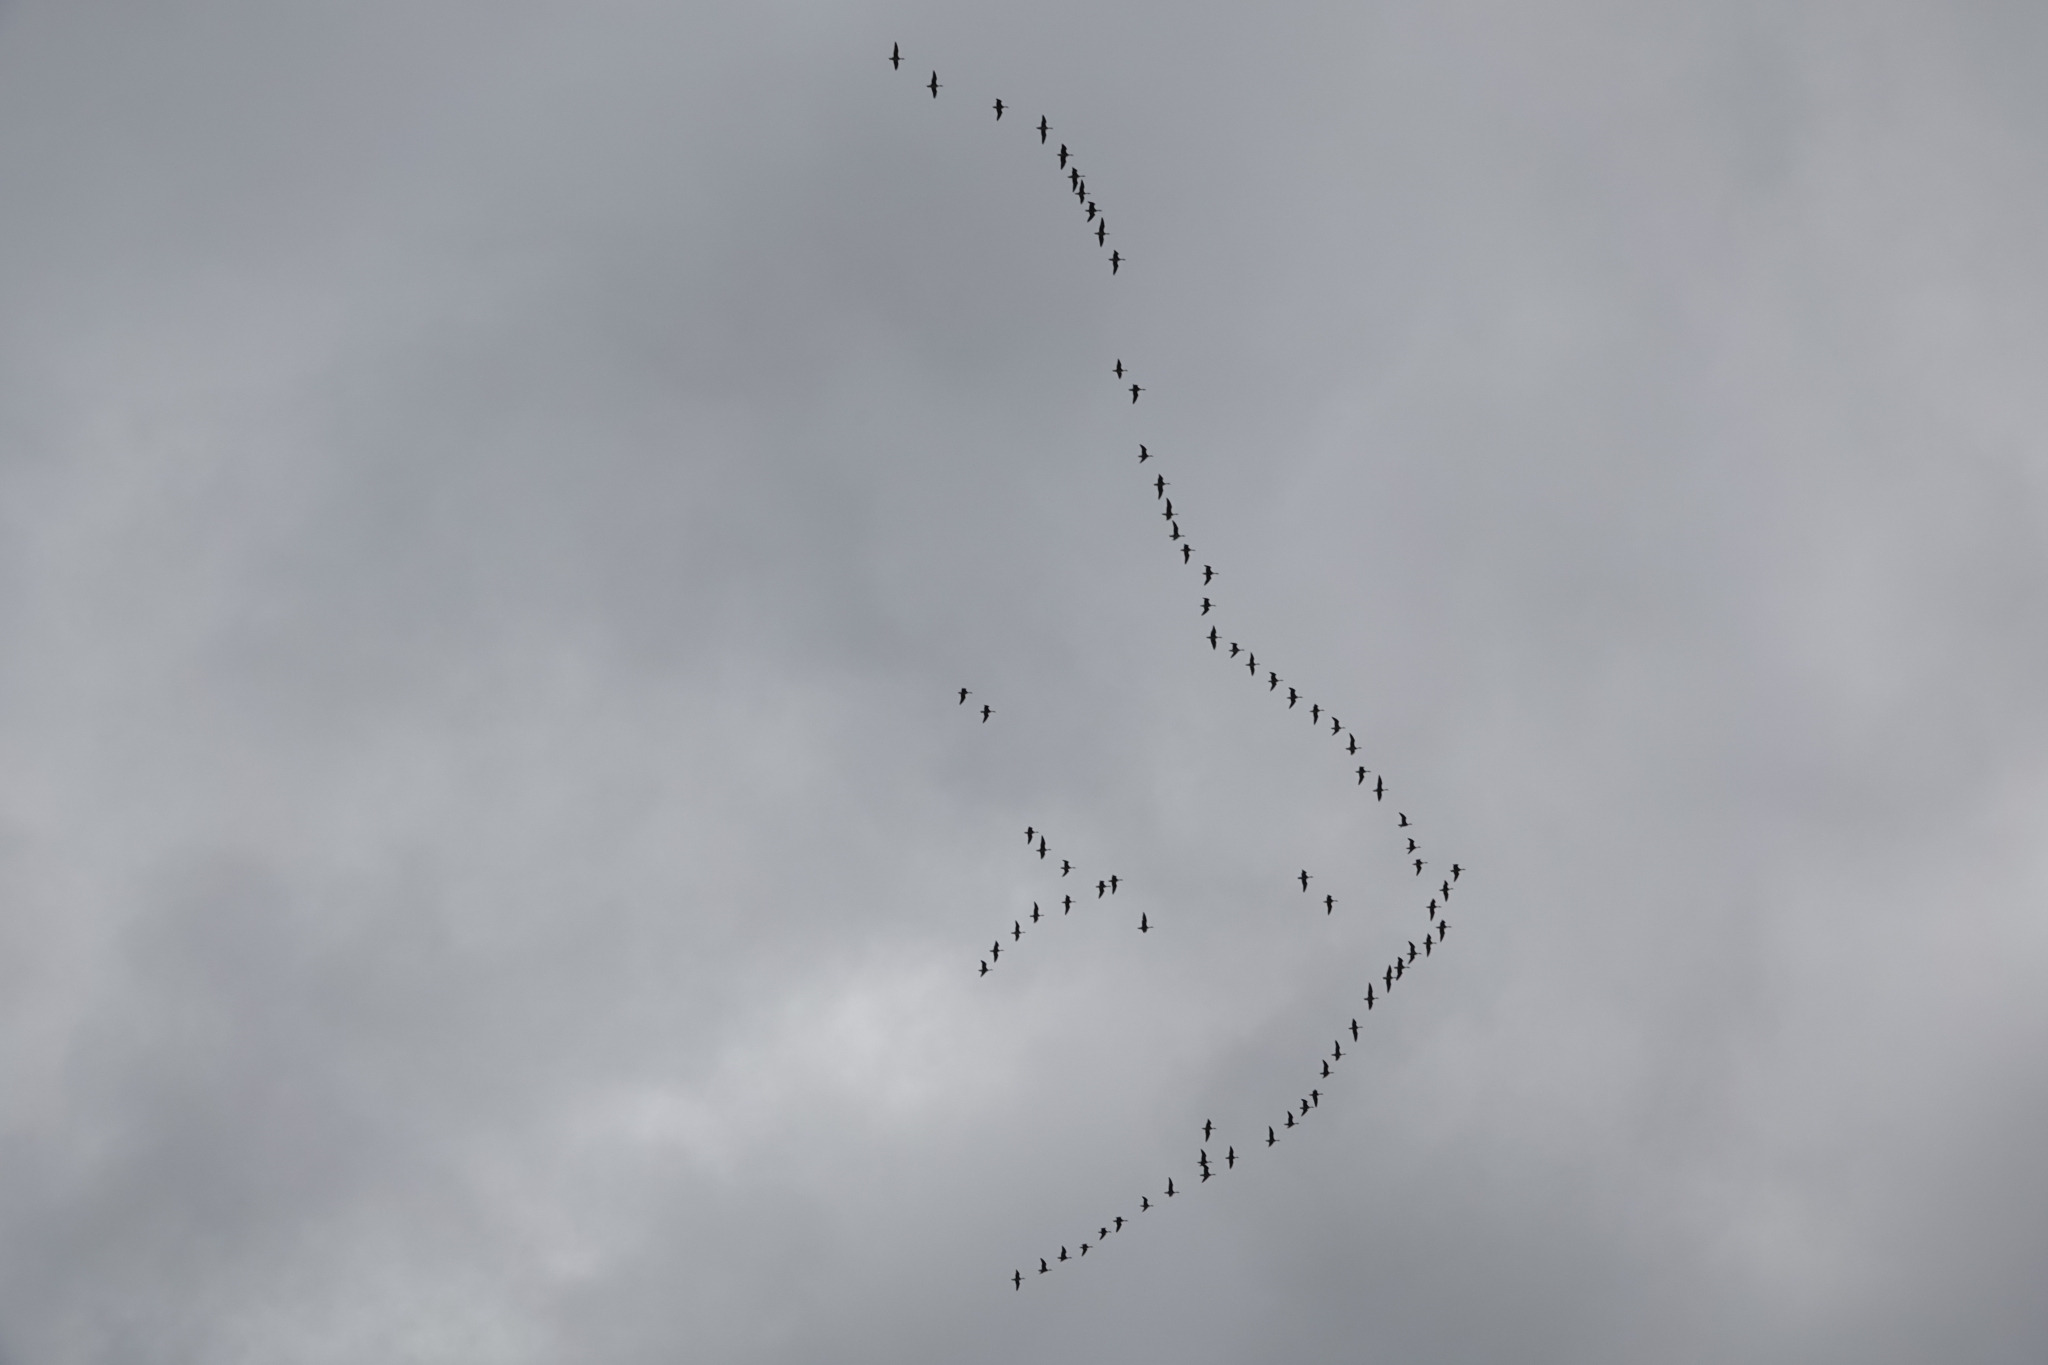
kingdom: Animalia
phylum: Chordata
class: Aves
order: Anseriformes
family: Anatidae
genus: Anser
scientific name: Anser albifrons
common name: Greater white-fronted goose
